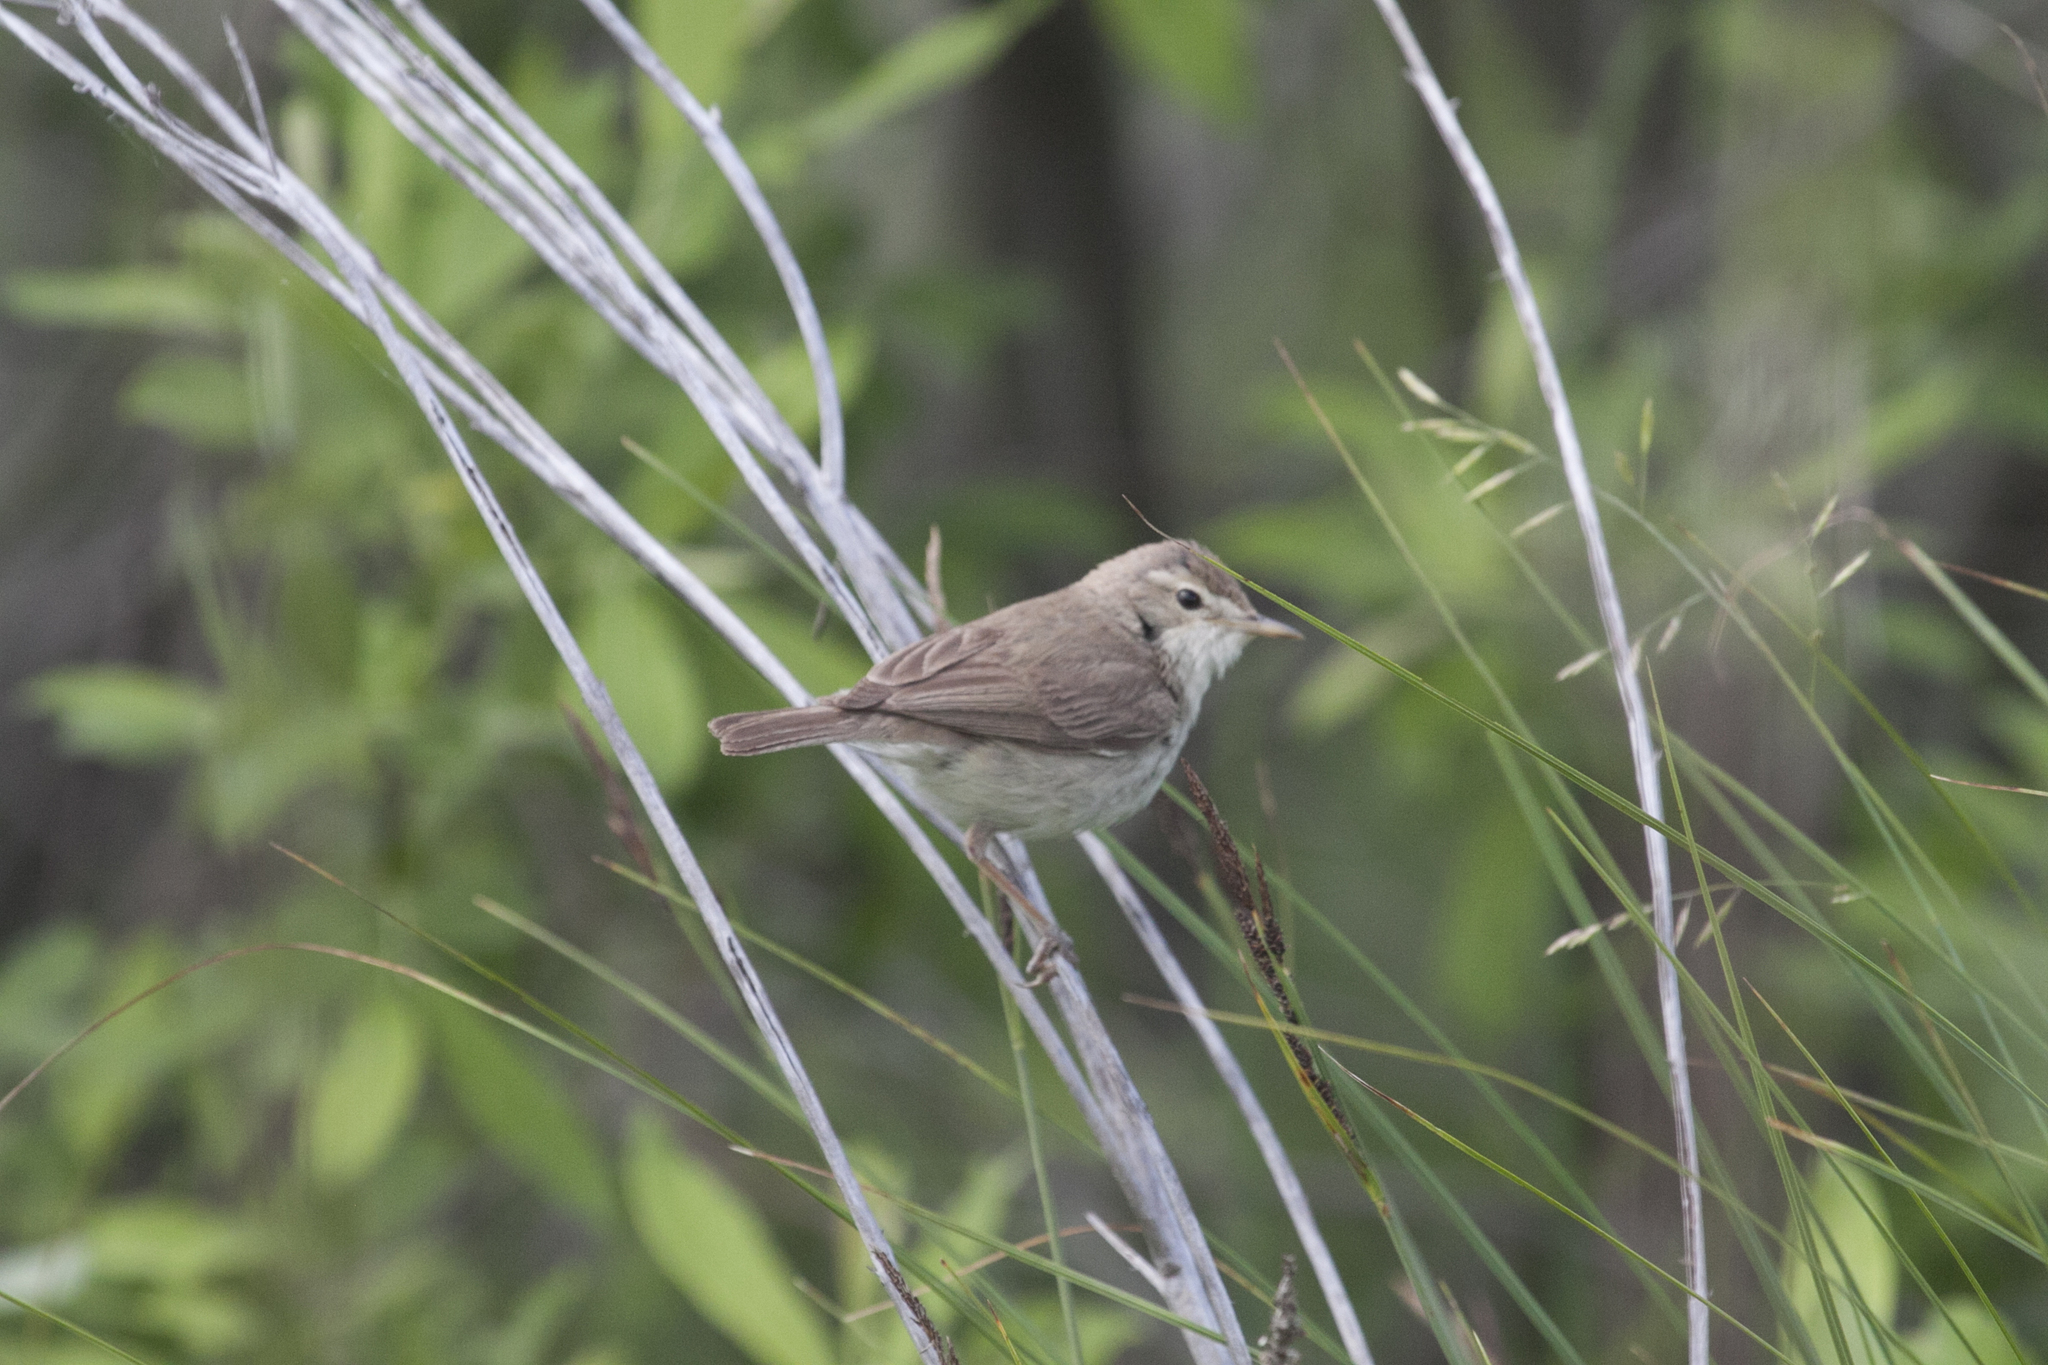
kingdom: Animalia
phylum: Chordata
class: Aves
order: Passeriformes
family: Acrocephalidae
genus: Iduna
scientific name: Iduna caligata
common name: Booted warbler
